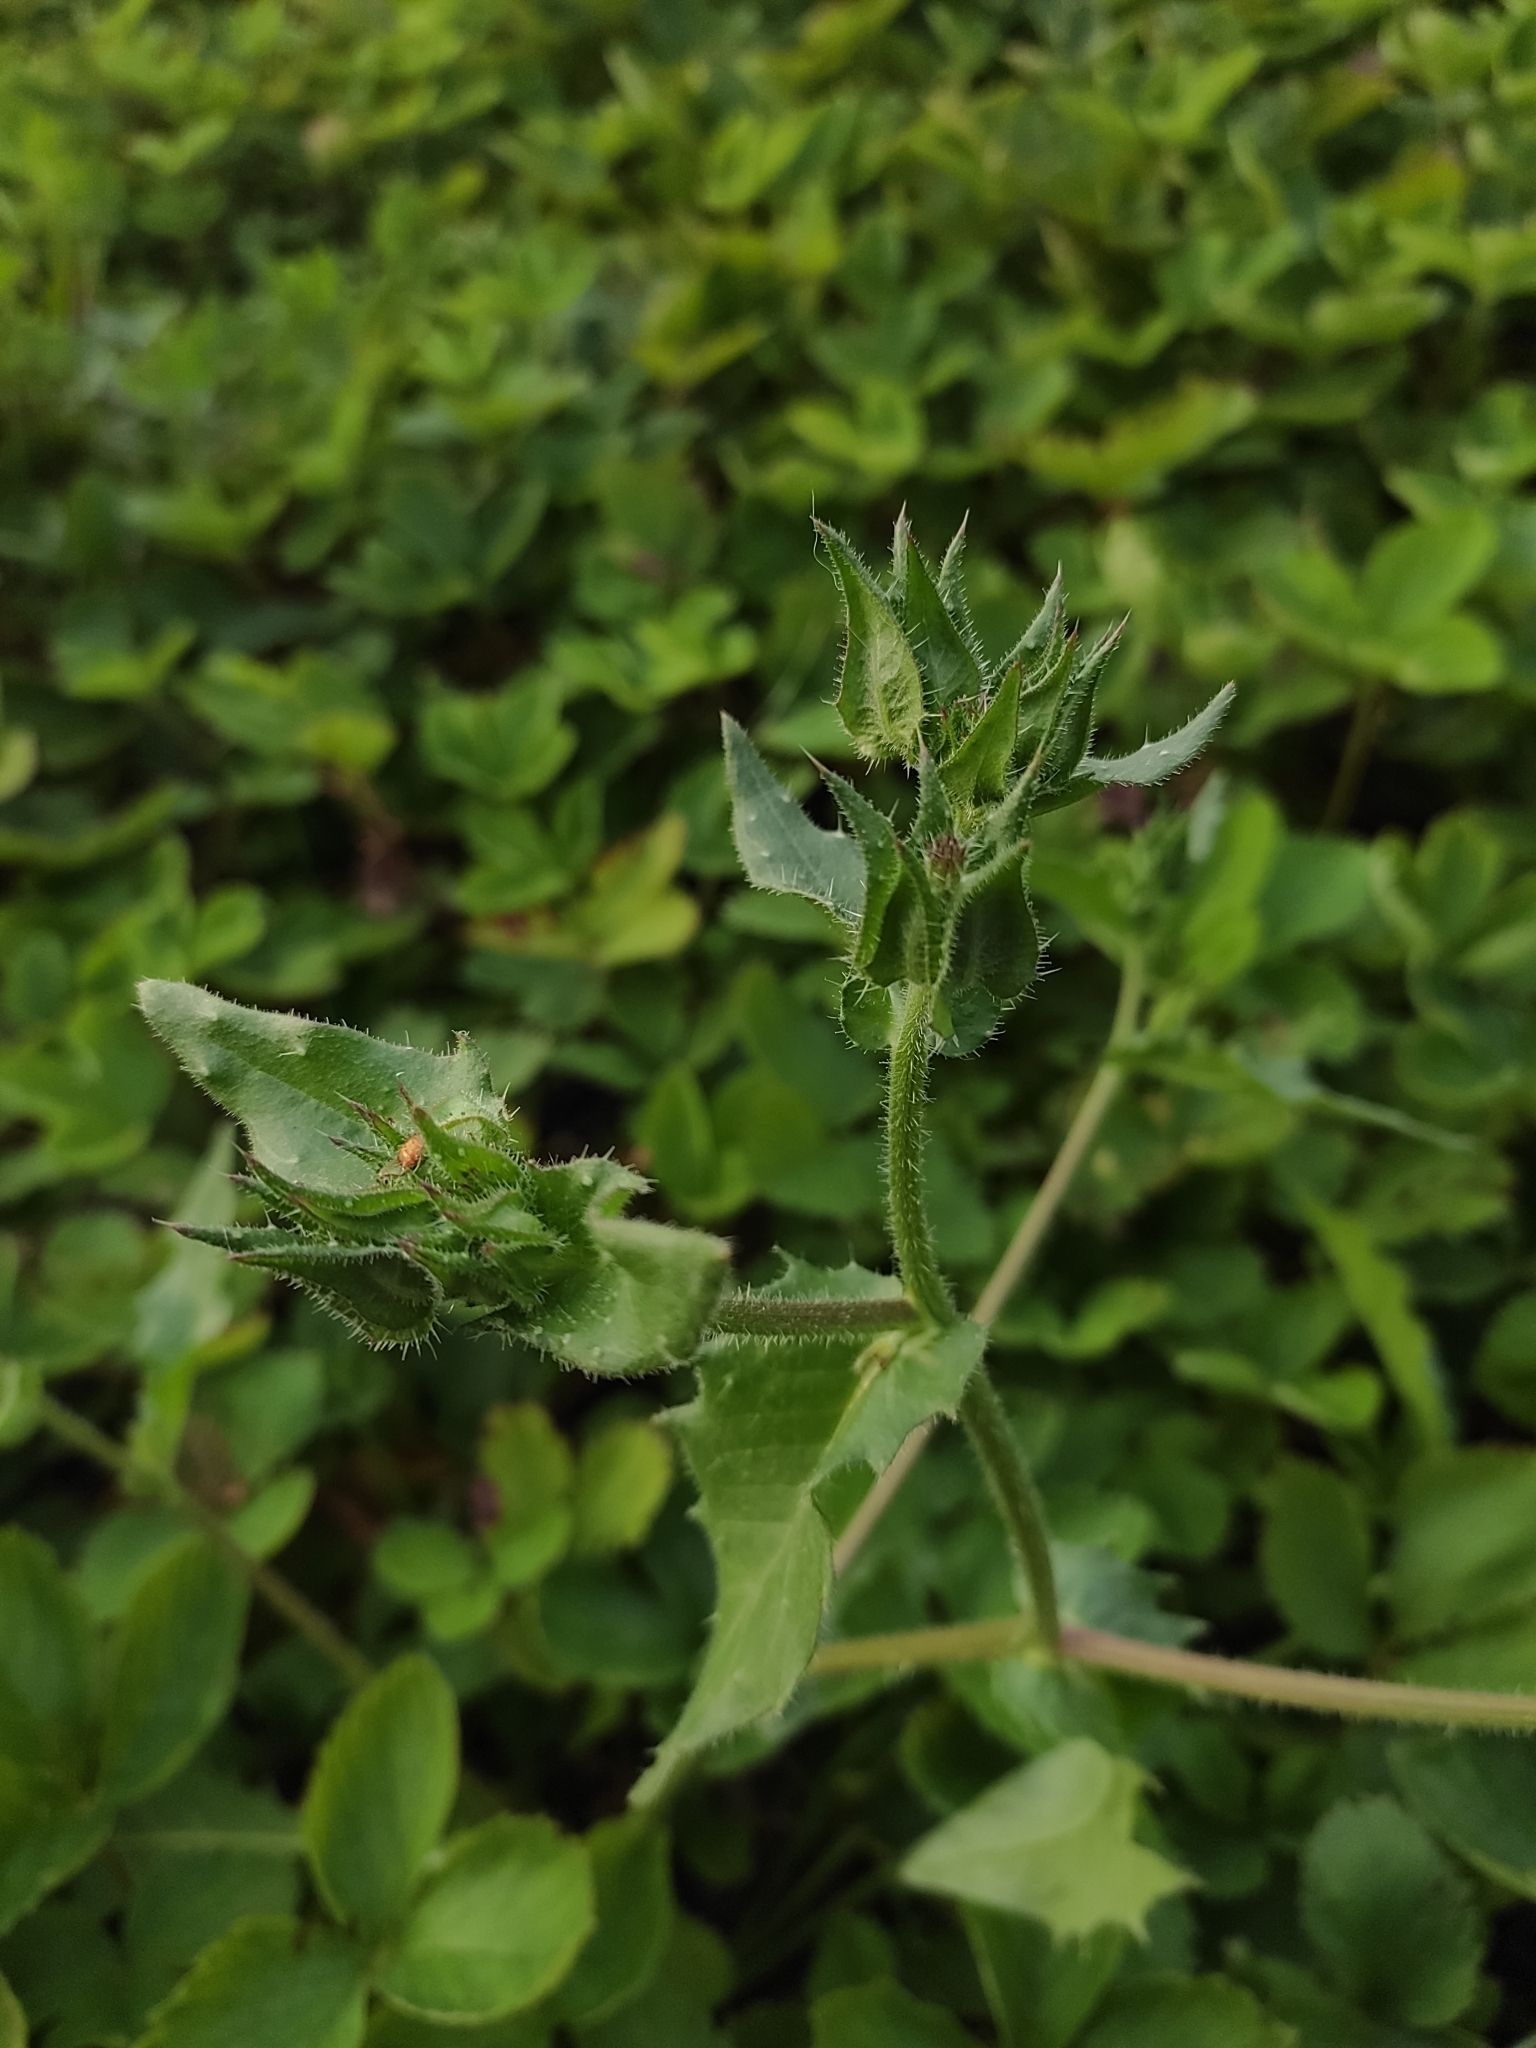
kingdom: Plantae
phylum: Tracheophyta
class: Magnoliopsida
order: Asterales
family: Asteraceae
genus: Helminthotheca
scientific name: Helminthotheca echioides
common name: Ox-tongue
